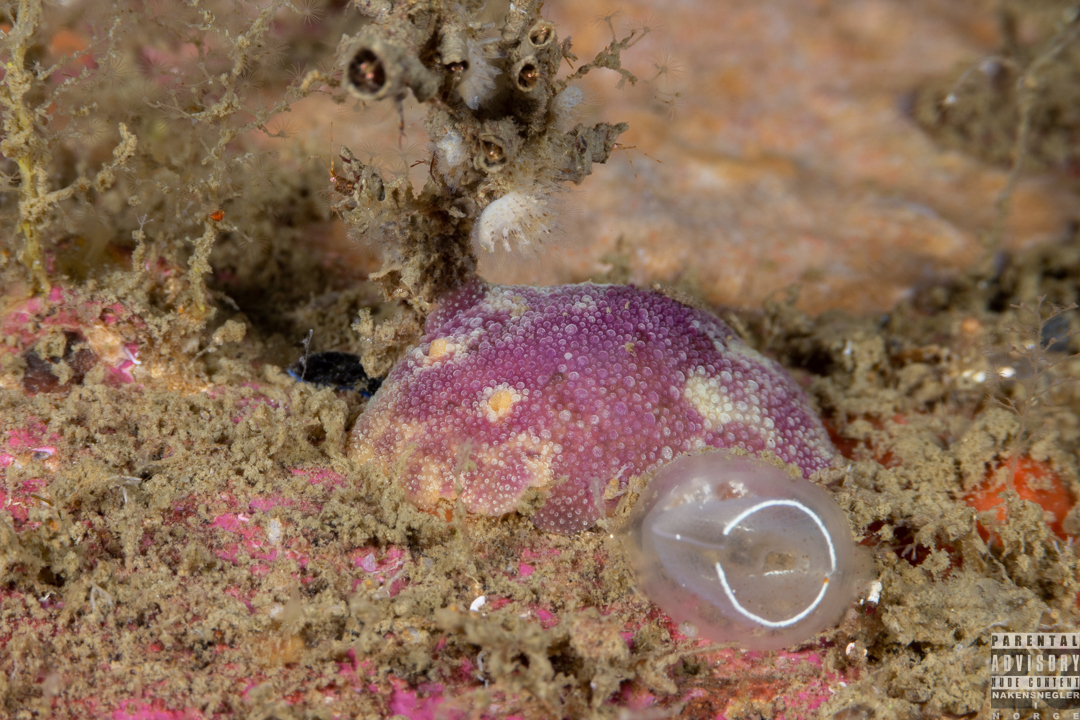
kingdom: Animalia
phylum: Mollusca
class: Gastropoda
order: Nudibranchia
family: Dorididae
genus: Doris
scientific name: Doris pseudoargus
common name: Sea lemon
